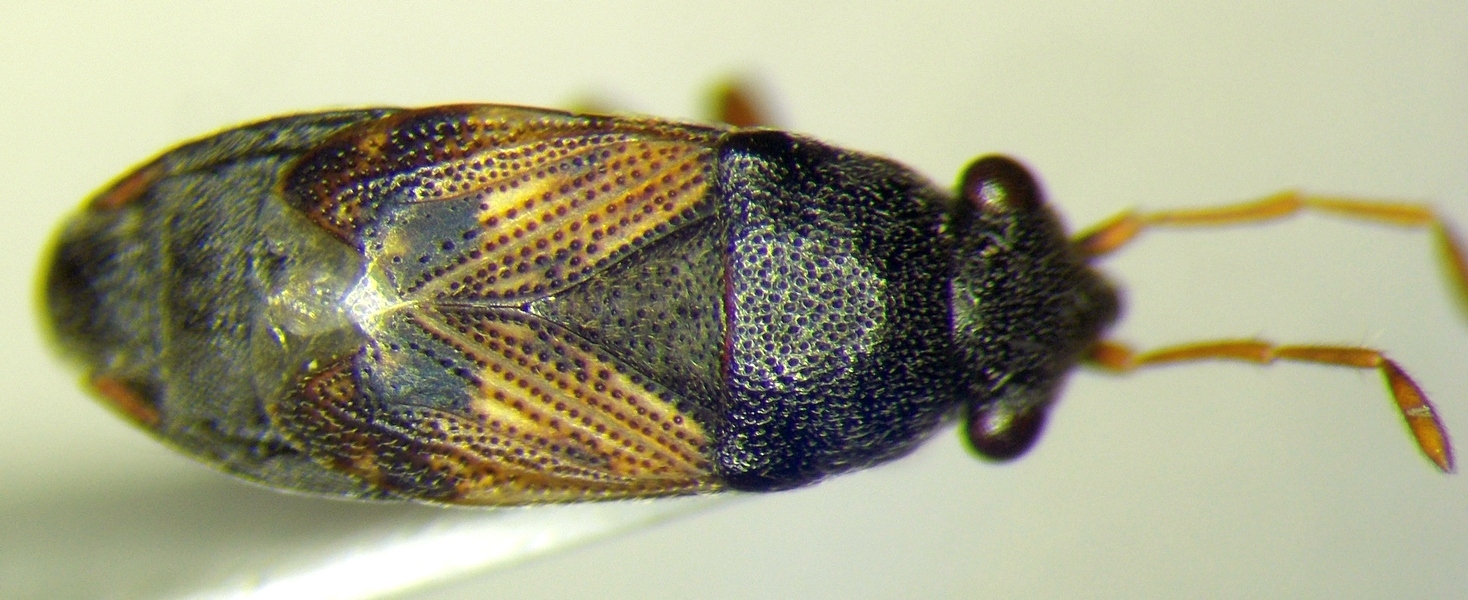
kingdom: Animalia
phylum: Arthropoda
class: Insecta
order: Hemiptera
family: Rhyparochromidae
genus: Acompus
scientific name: Acompus pallipes
